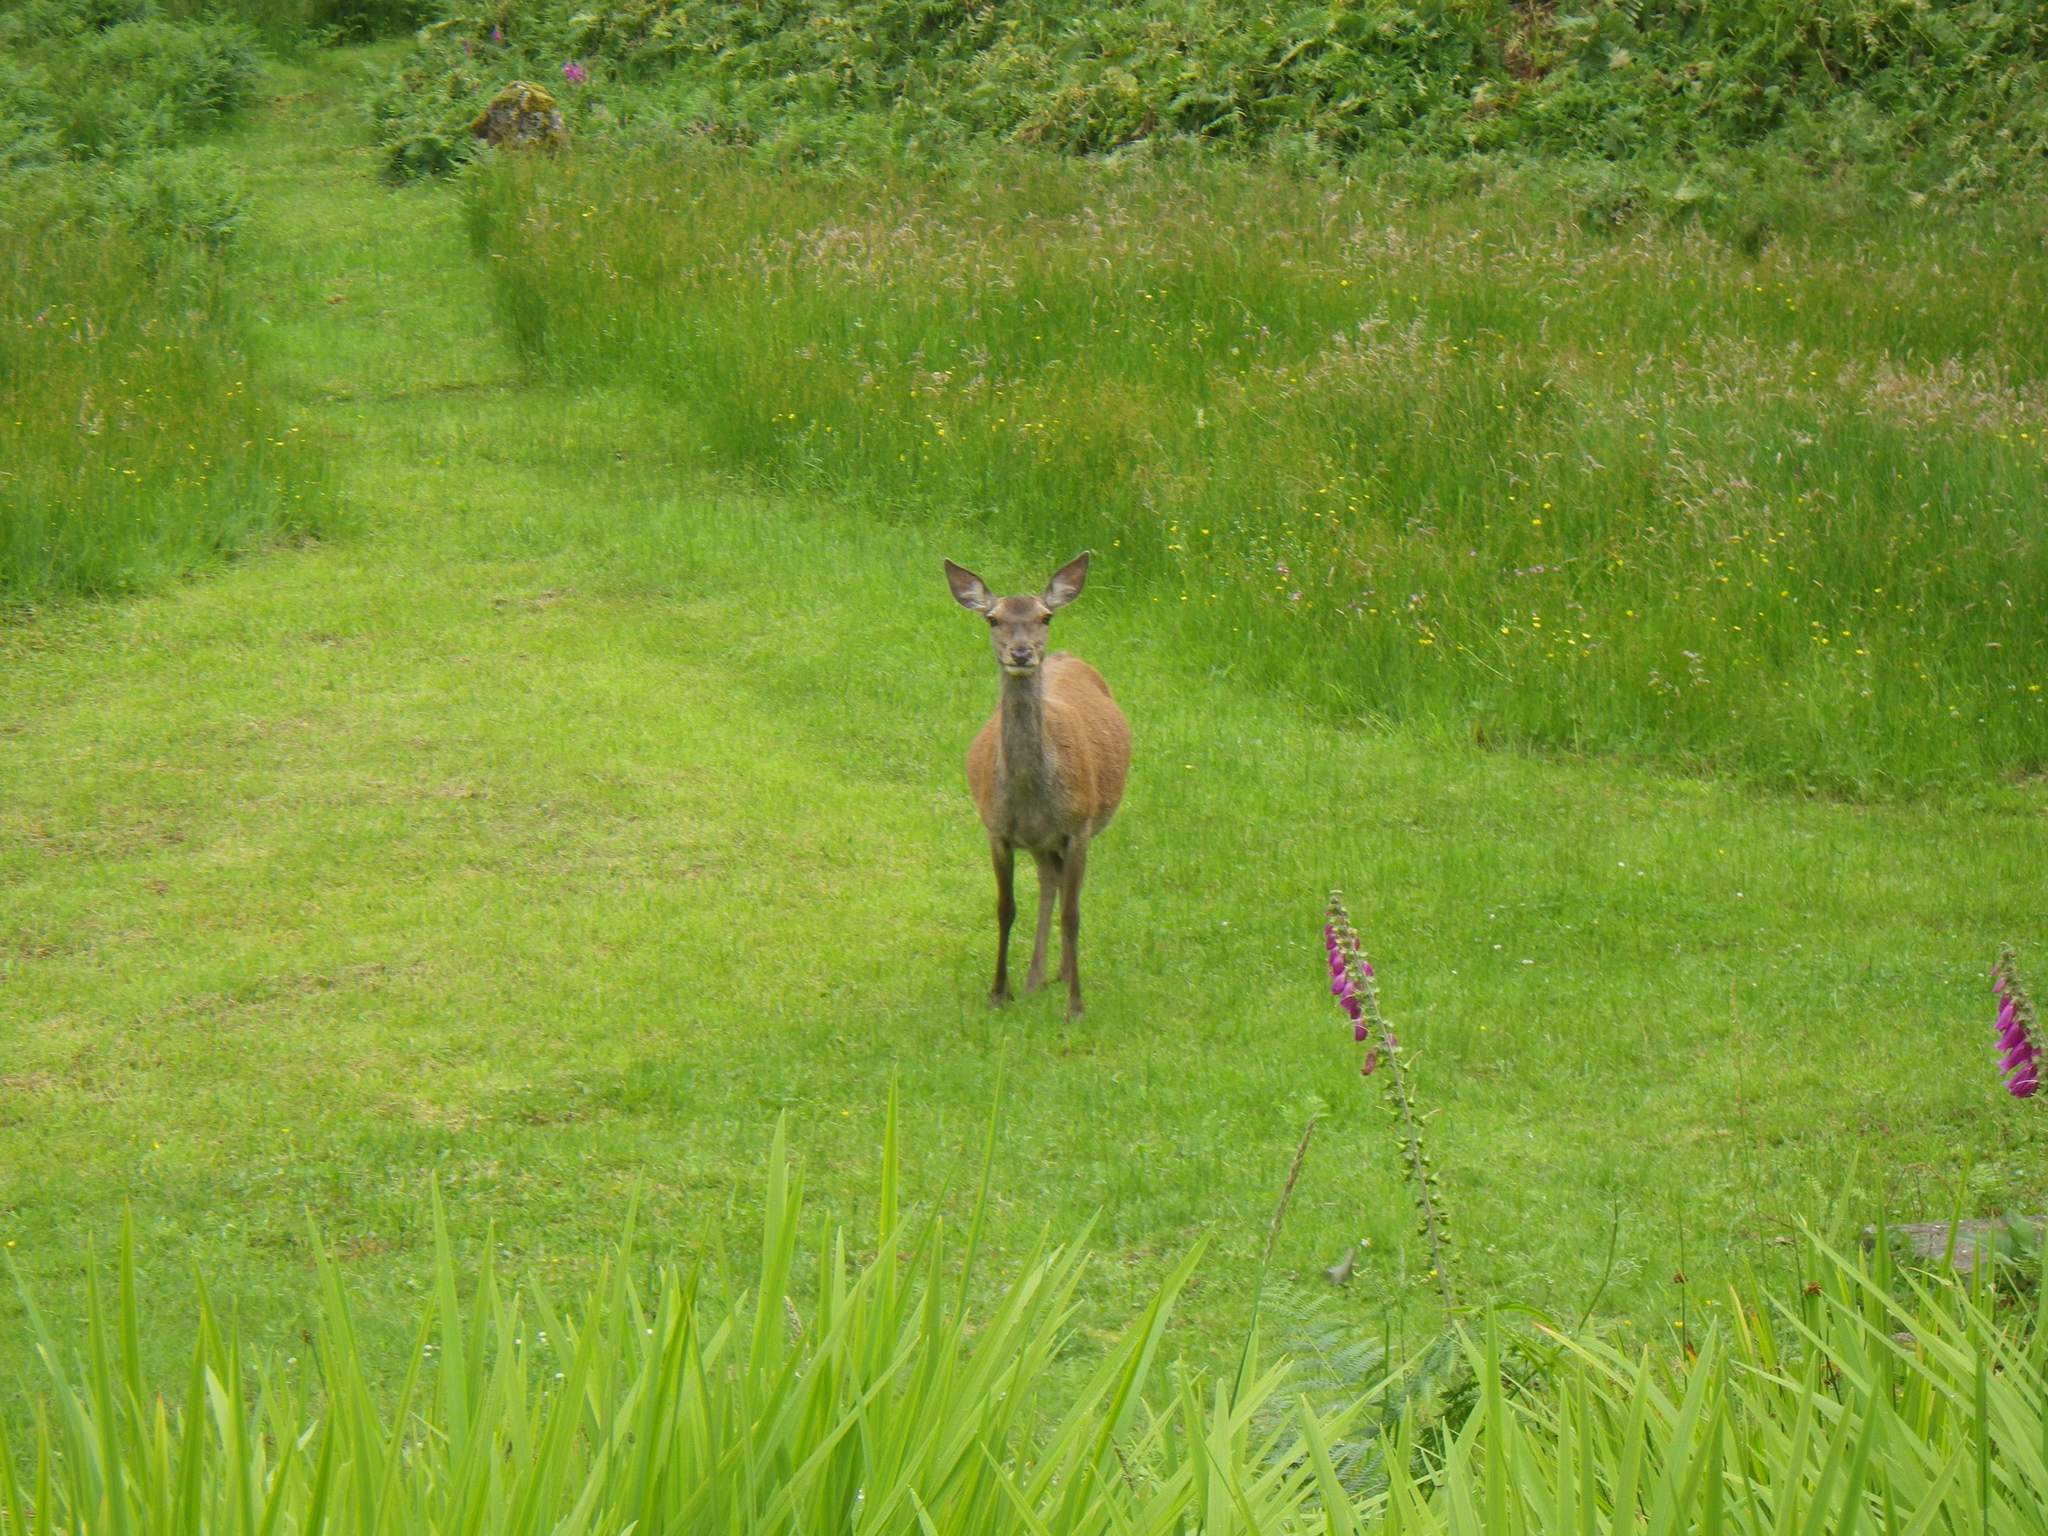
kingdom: Animalia
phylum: Chordata
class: Mammalia
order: Artiodactyla
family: Cervidae
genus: Cervus
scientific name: Cervus elaphus
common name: Red deer
